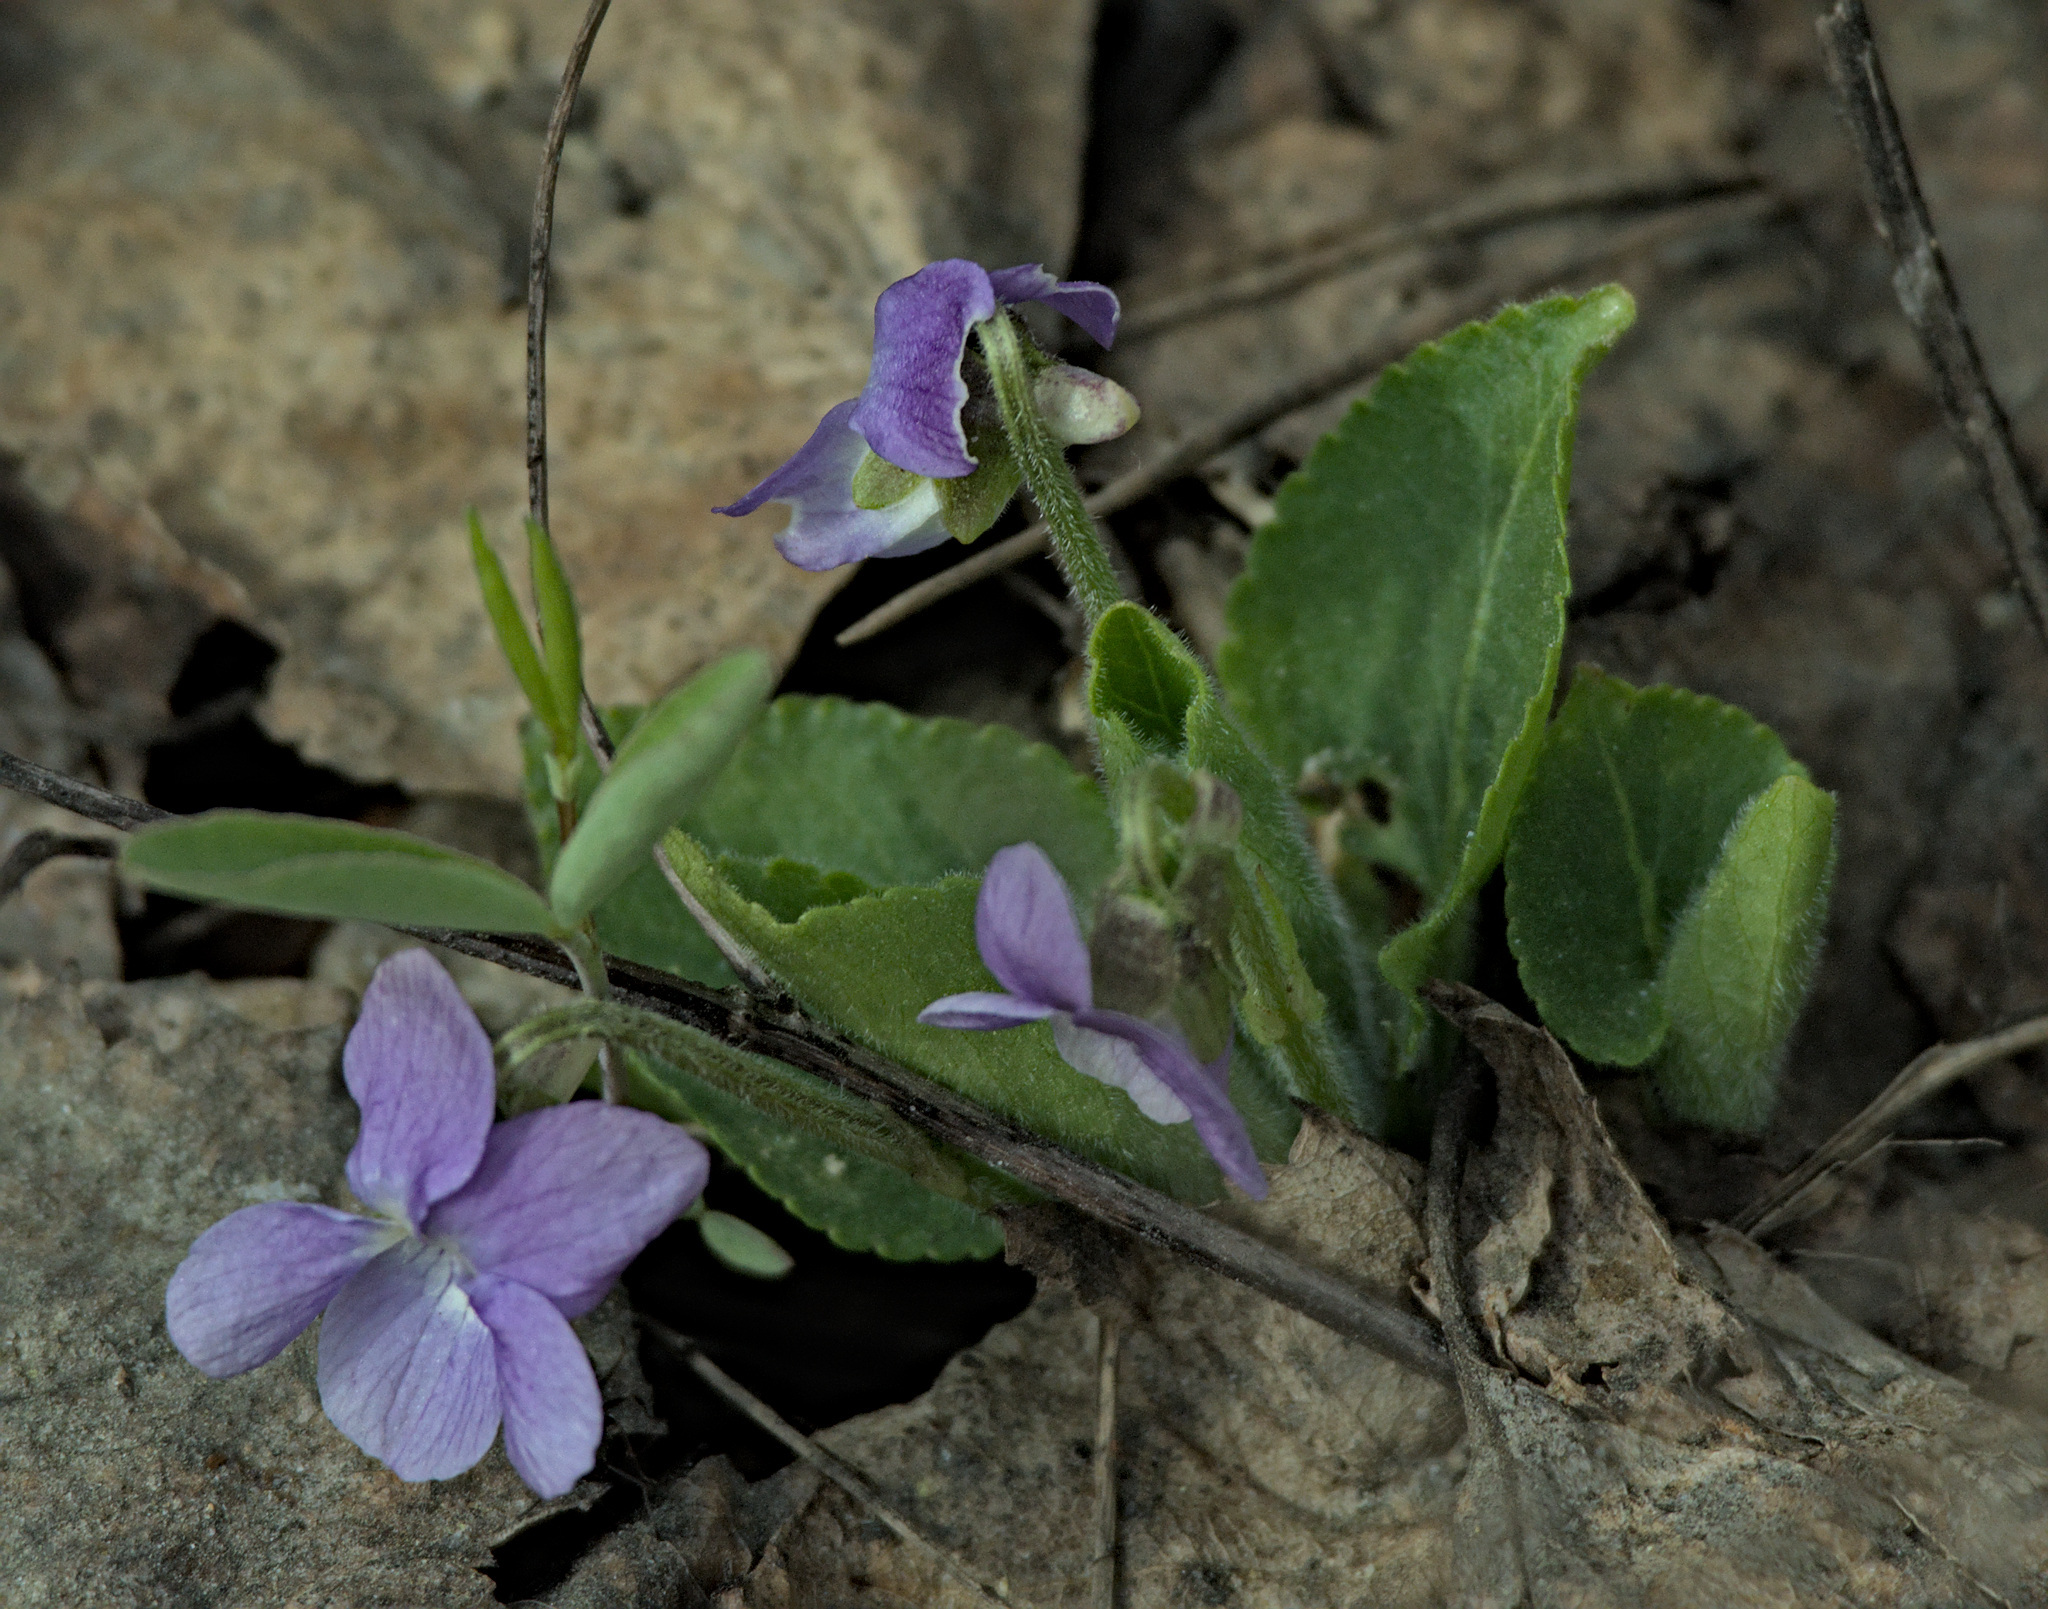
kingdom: Plantae
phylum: Tracheophyta
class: Magnoliopsida
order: Malpighiales
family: Violaceae
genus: Viola
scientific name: Viola hirta
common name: Hairy violet
